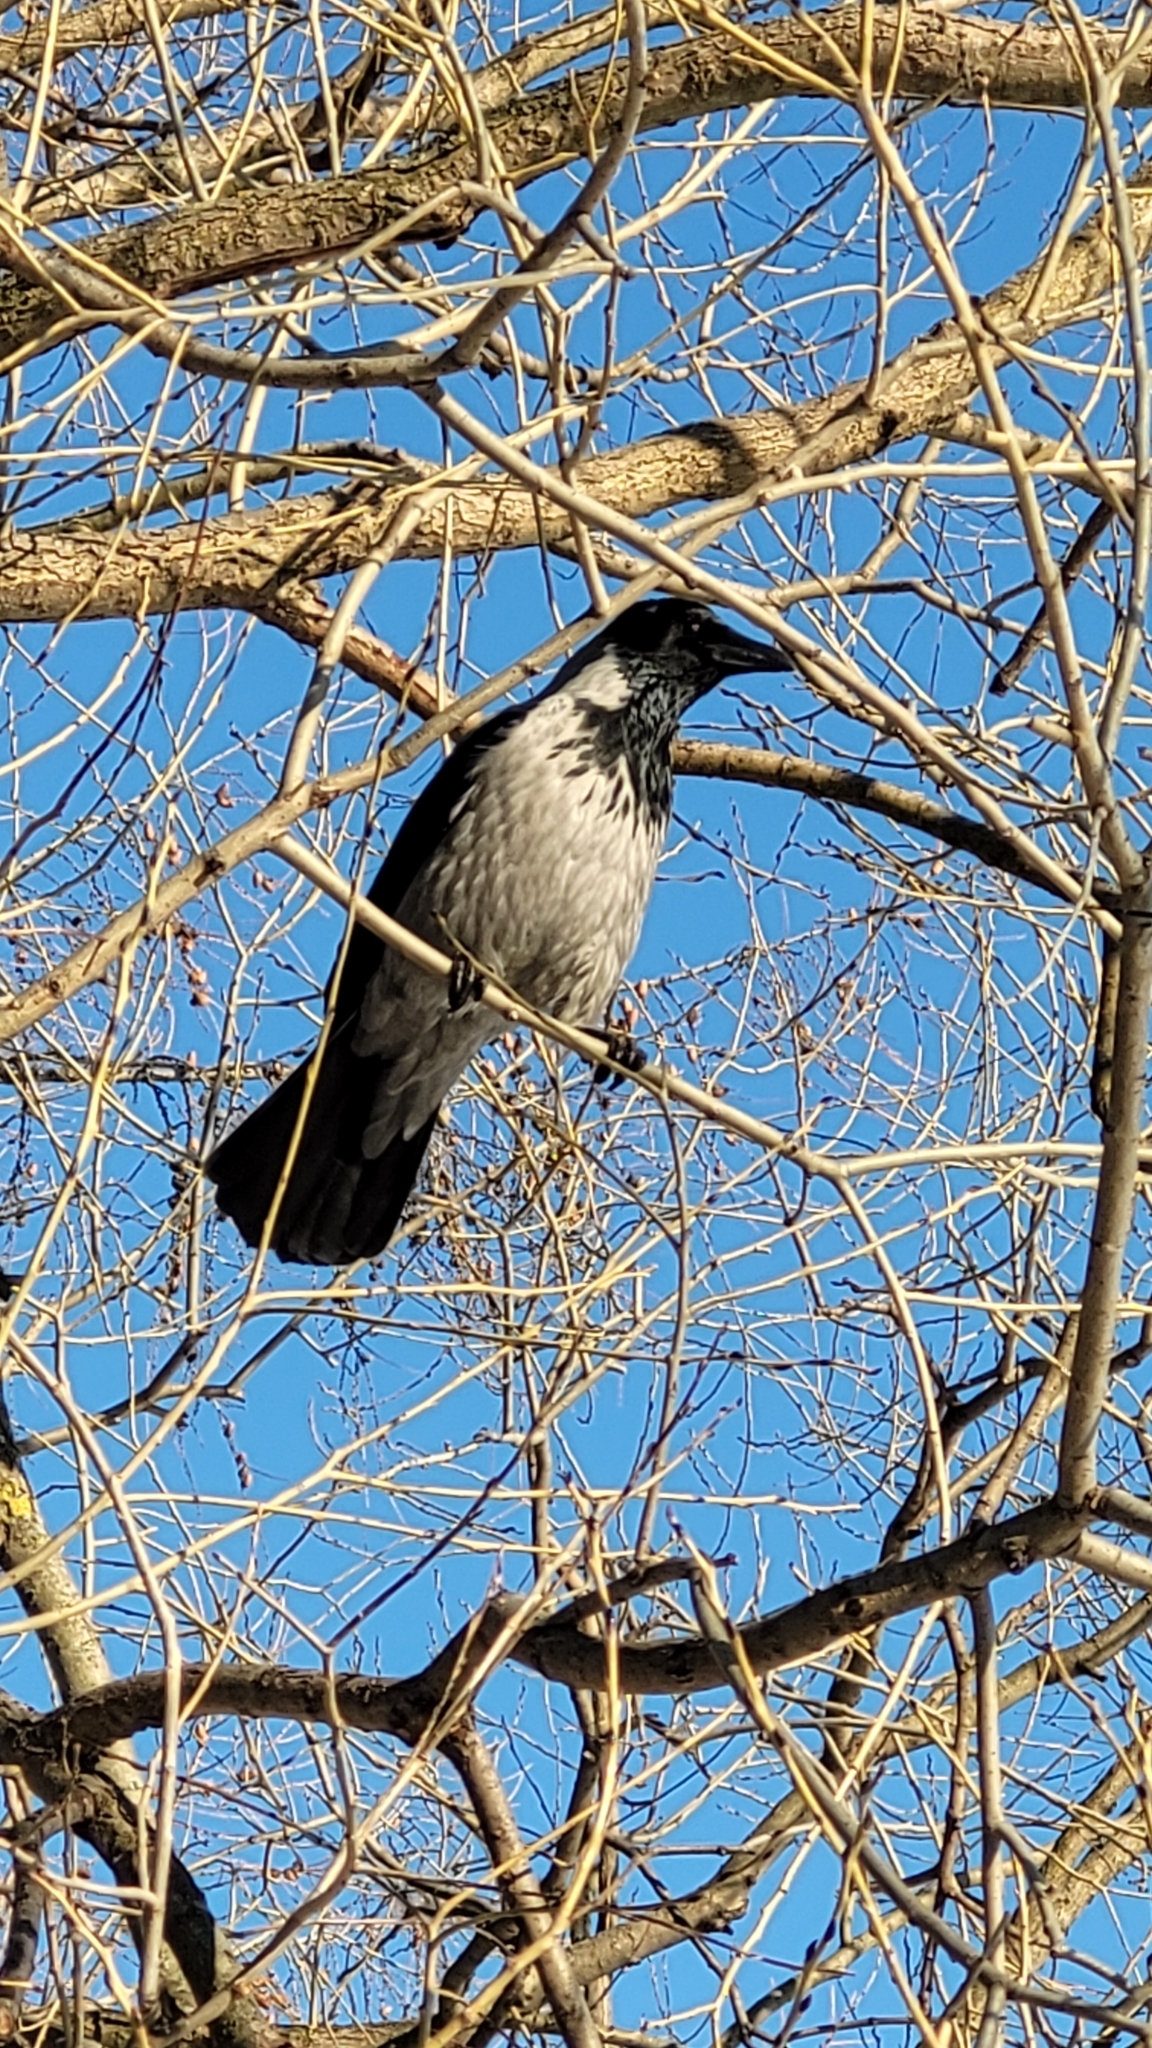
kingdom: Animalia
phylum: Chordata
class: Aves
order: Passeriformes
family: Corvidae
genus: Corvus
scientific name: Corvus cornix
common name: Hooded crow
